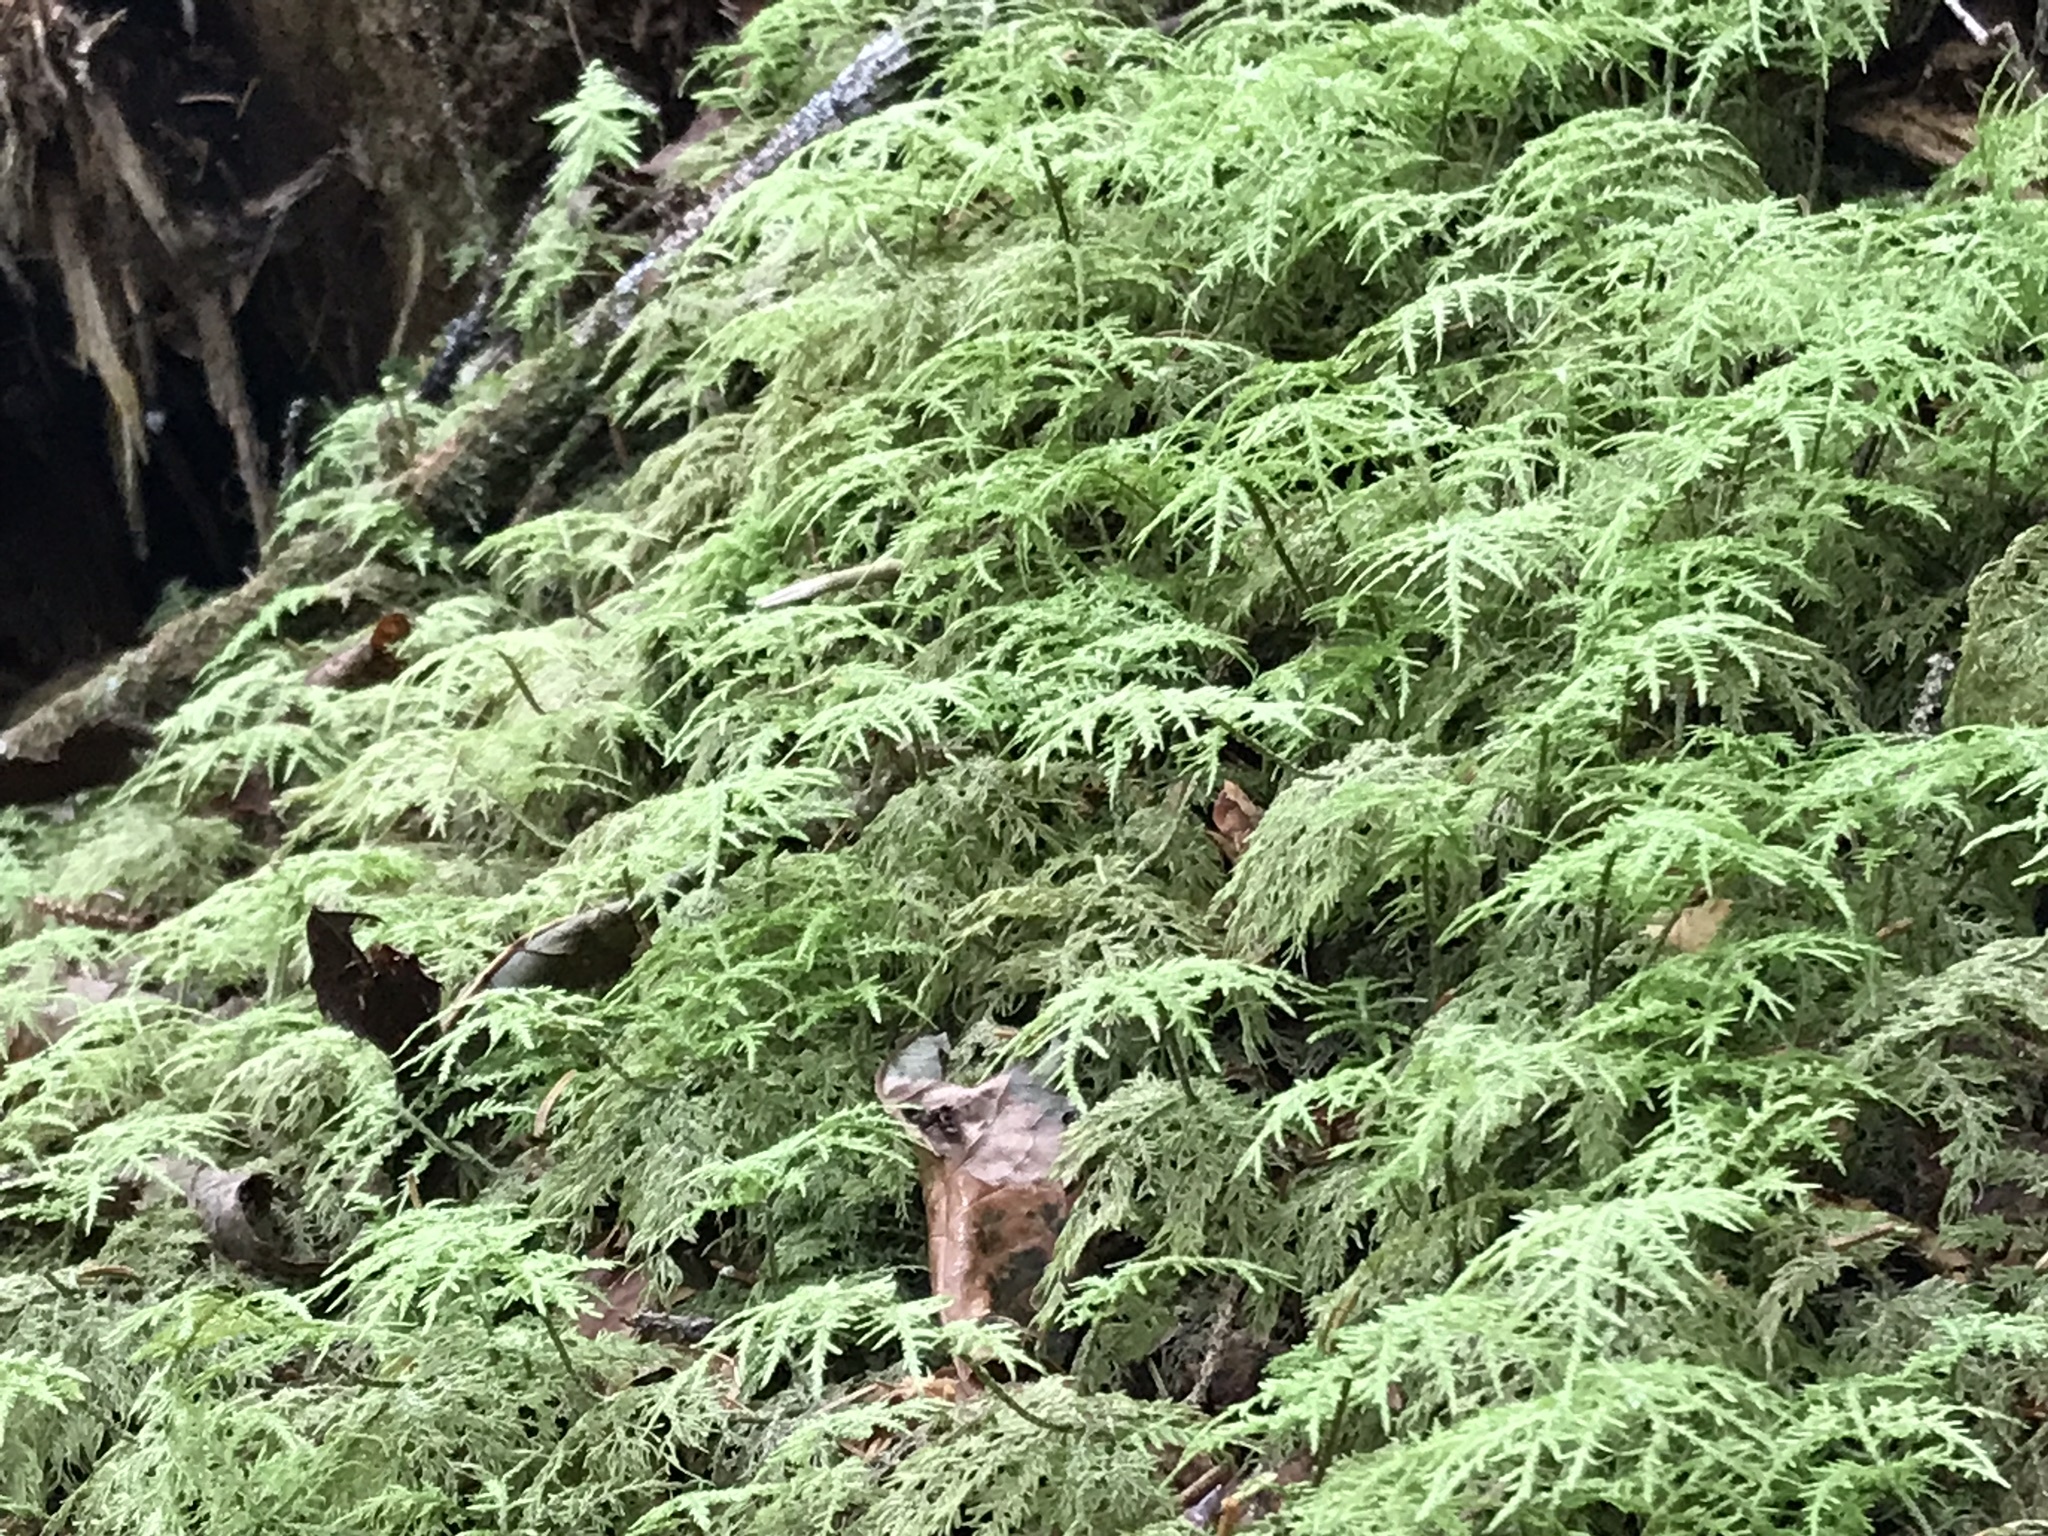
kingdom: Plantae
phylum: Bryophyta
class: Bryopsida
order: Hypnales
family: Hylocomiaceae
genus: Hylocomium
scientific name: Hylocomium splendens
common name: Stairstep moss
